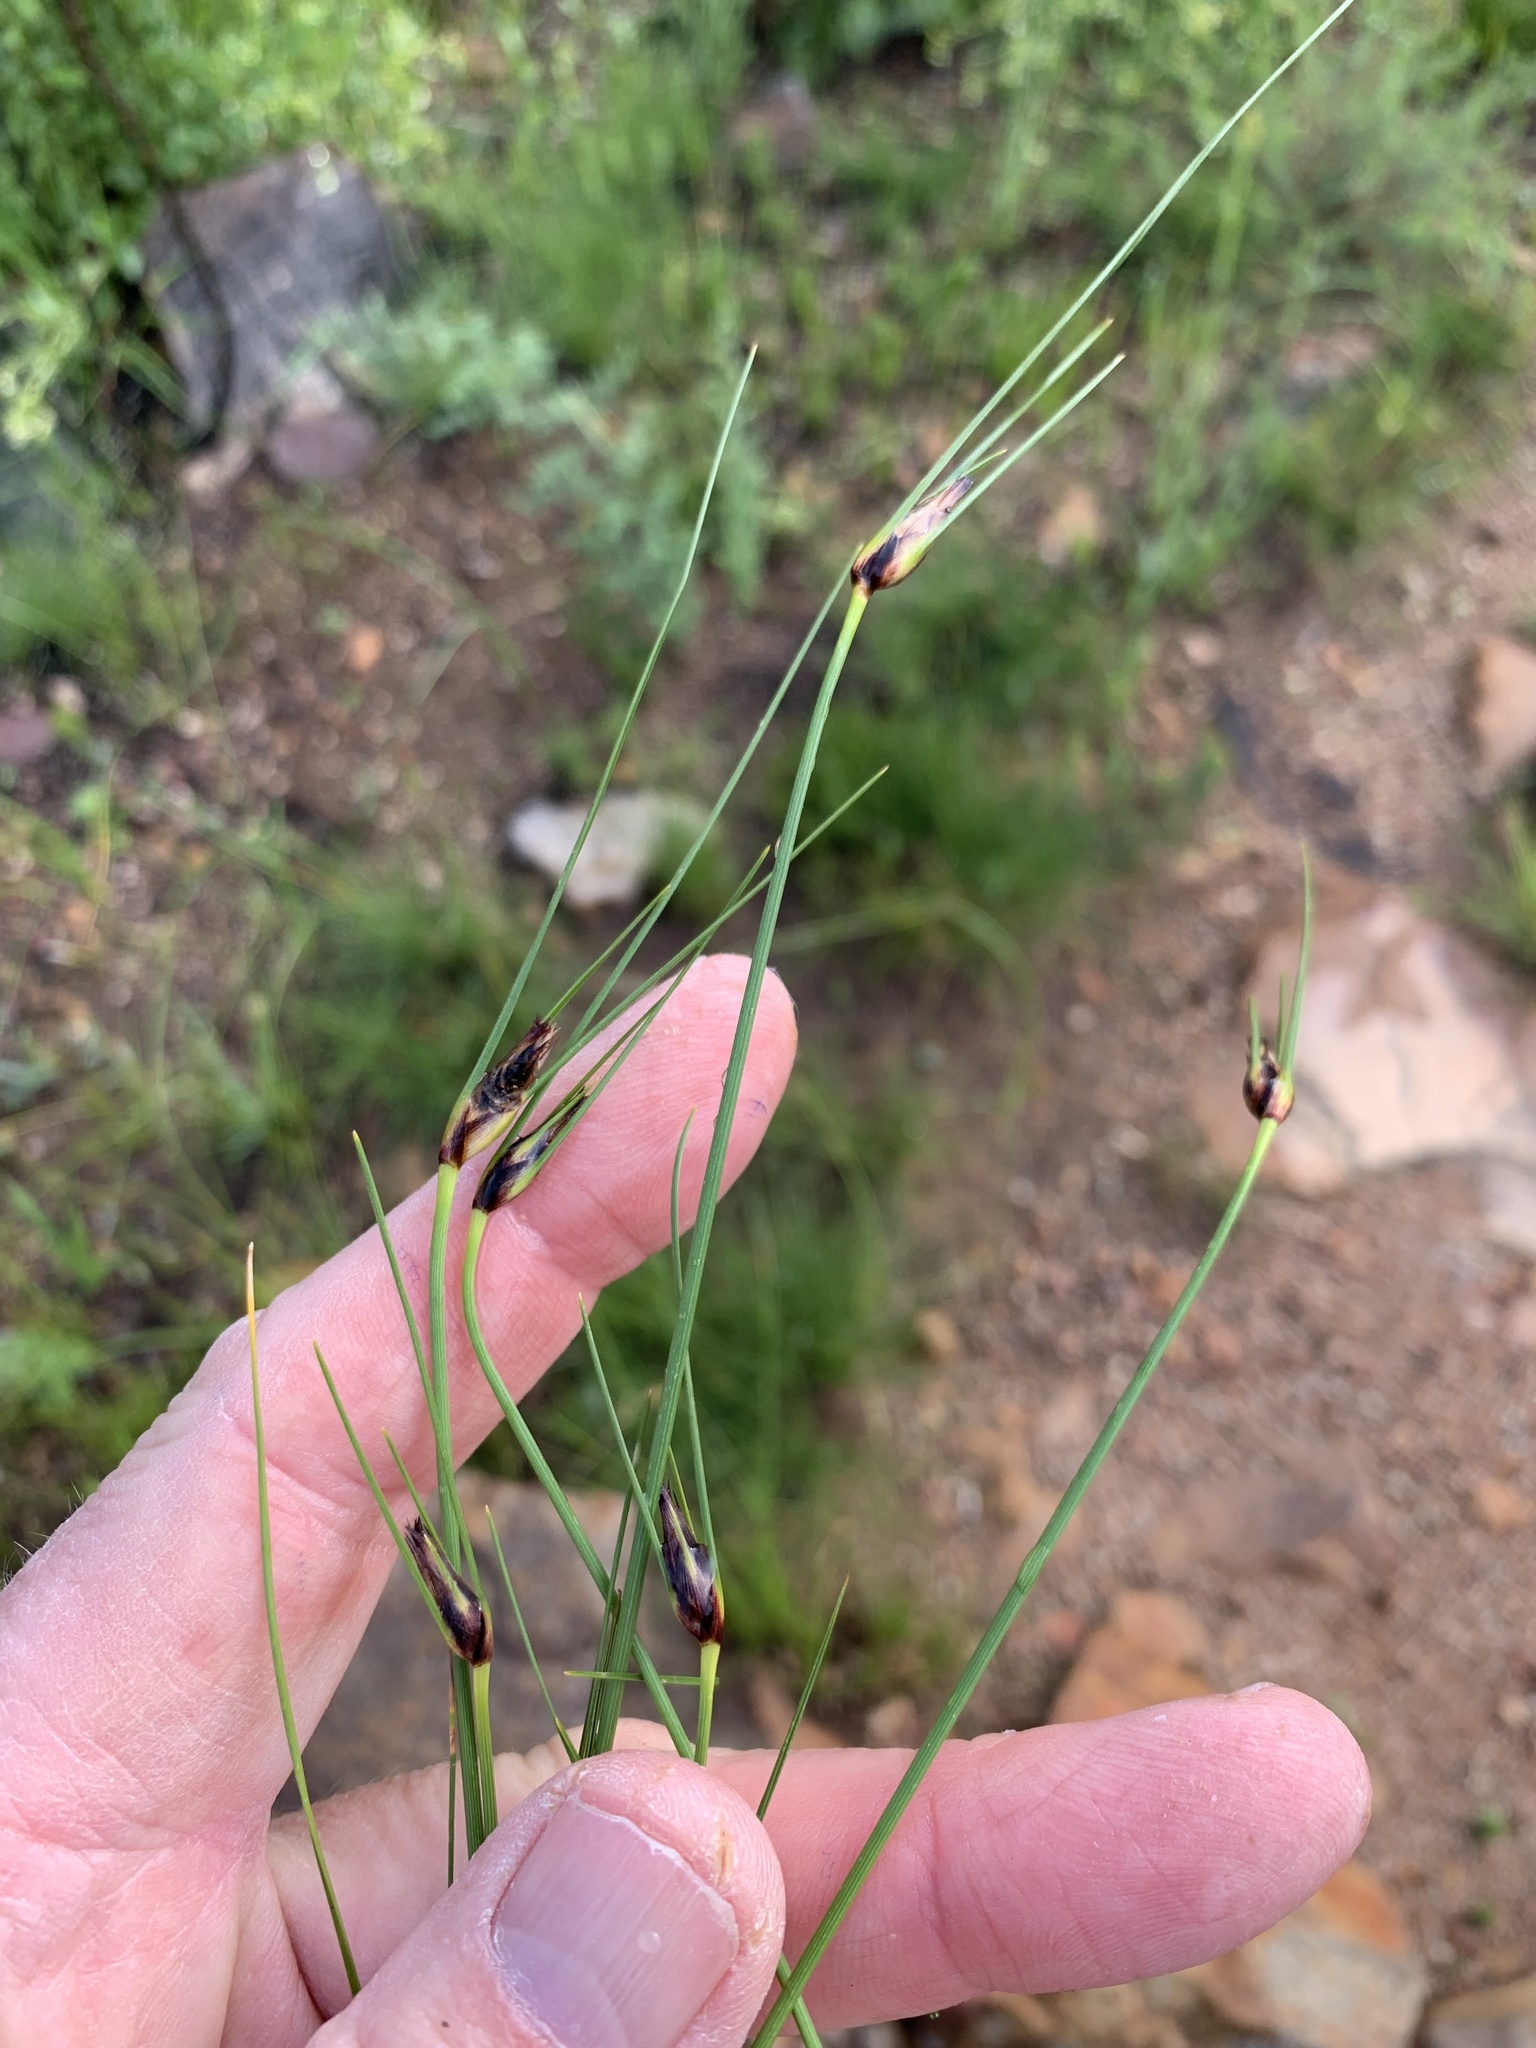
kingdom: Plantae
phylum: Tracheophyta
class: Liliopsida
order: Poales
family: Cyperaceae
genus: Ficinia
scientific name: Ficinia nigrescens
